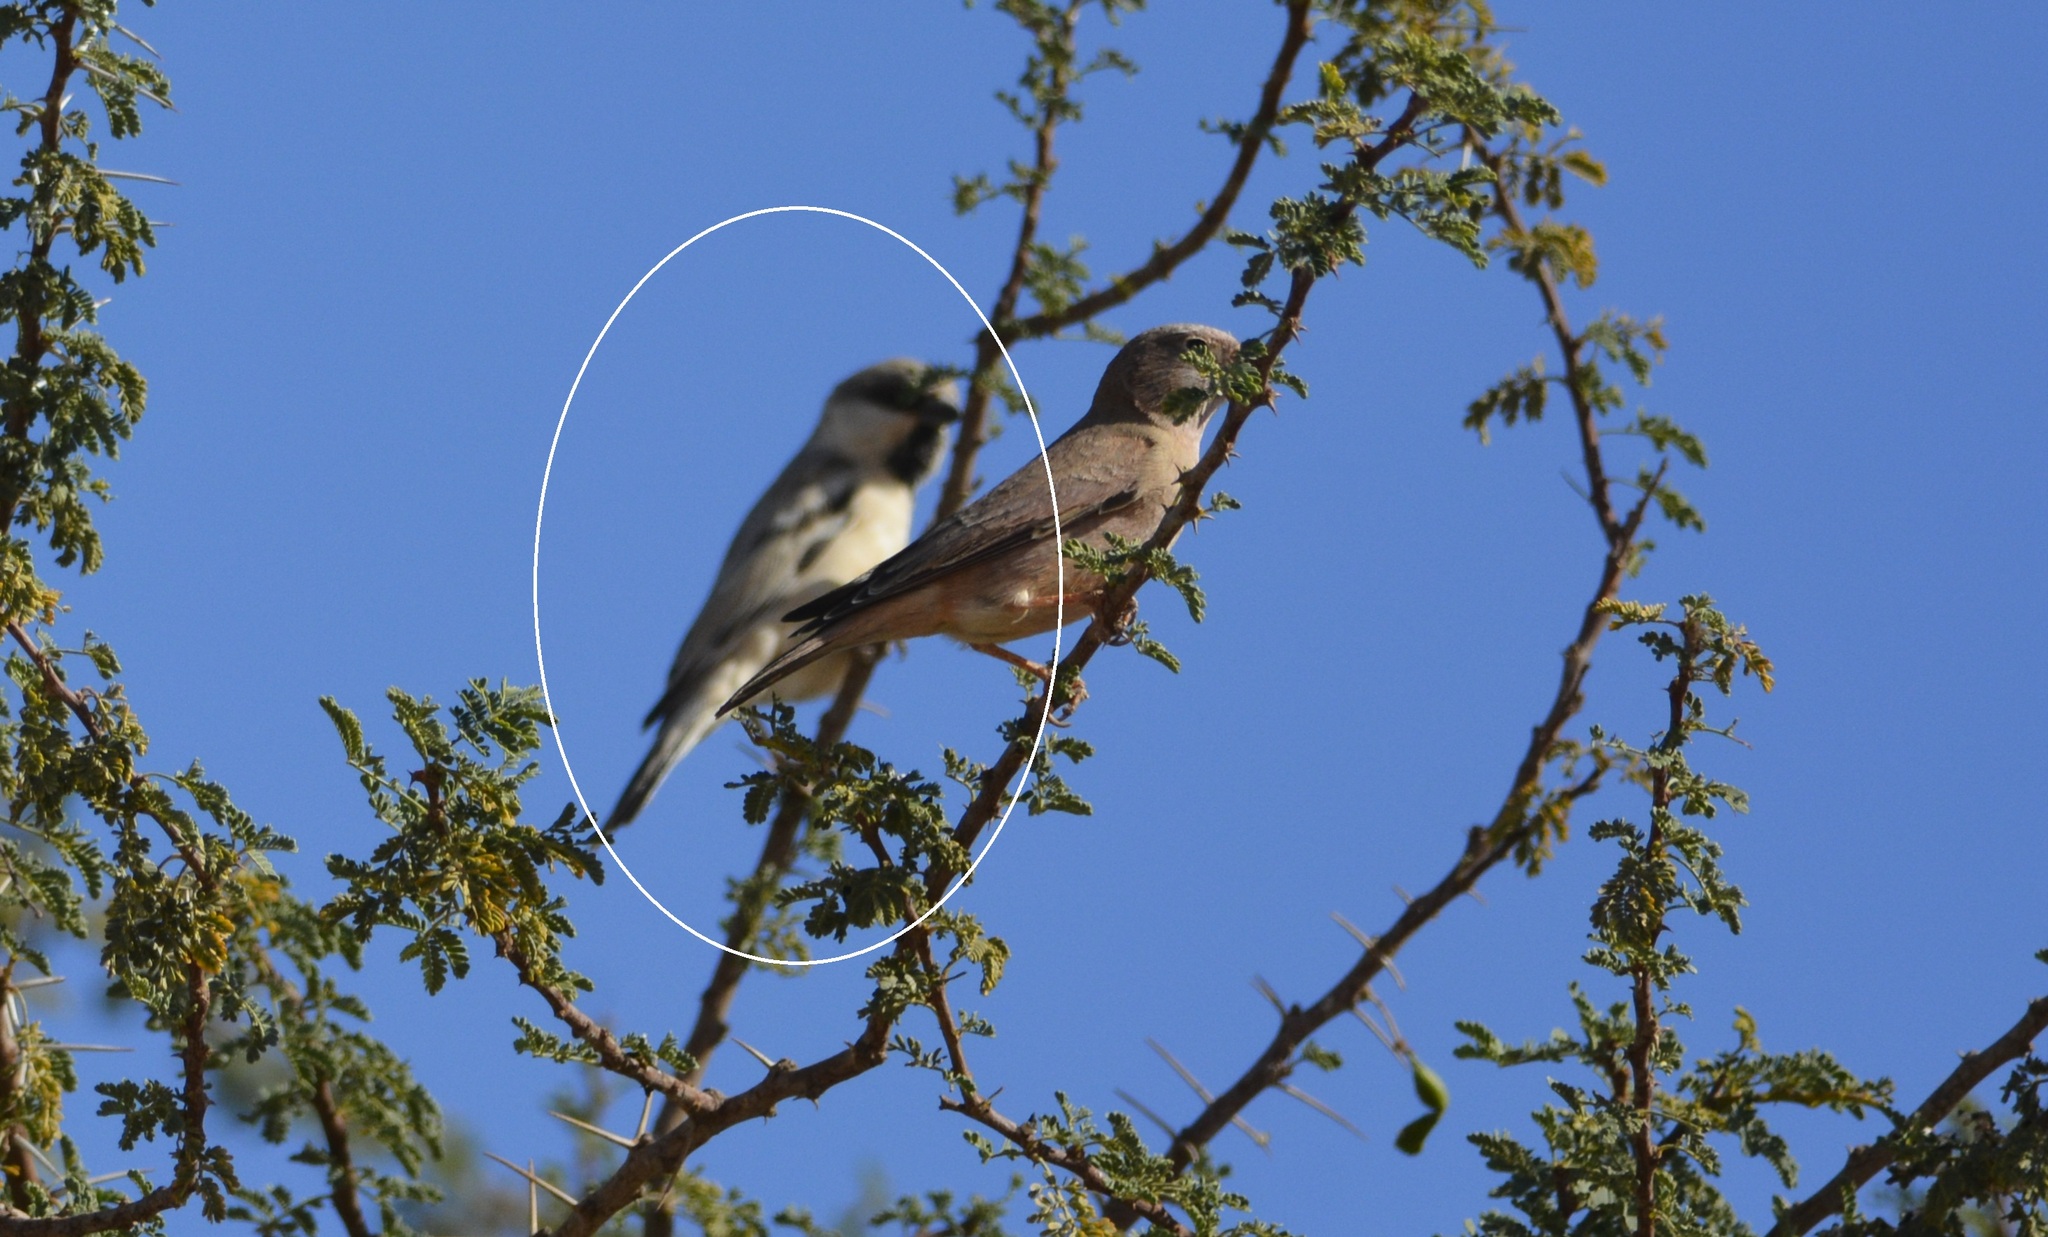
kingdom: Animalia
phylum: Chordata
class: Aves
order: Passeriformes
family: Passeridae
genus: Passer
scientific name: Passer simplex
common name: Desert sparrow
